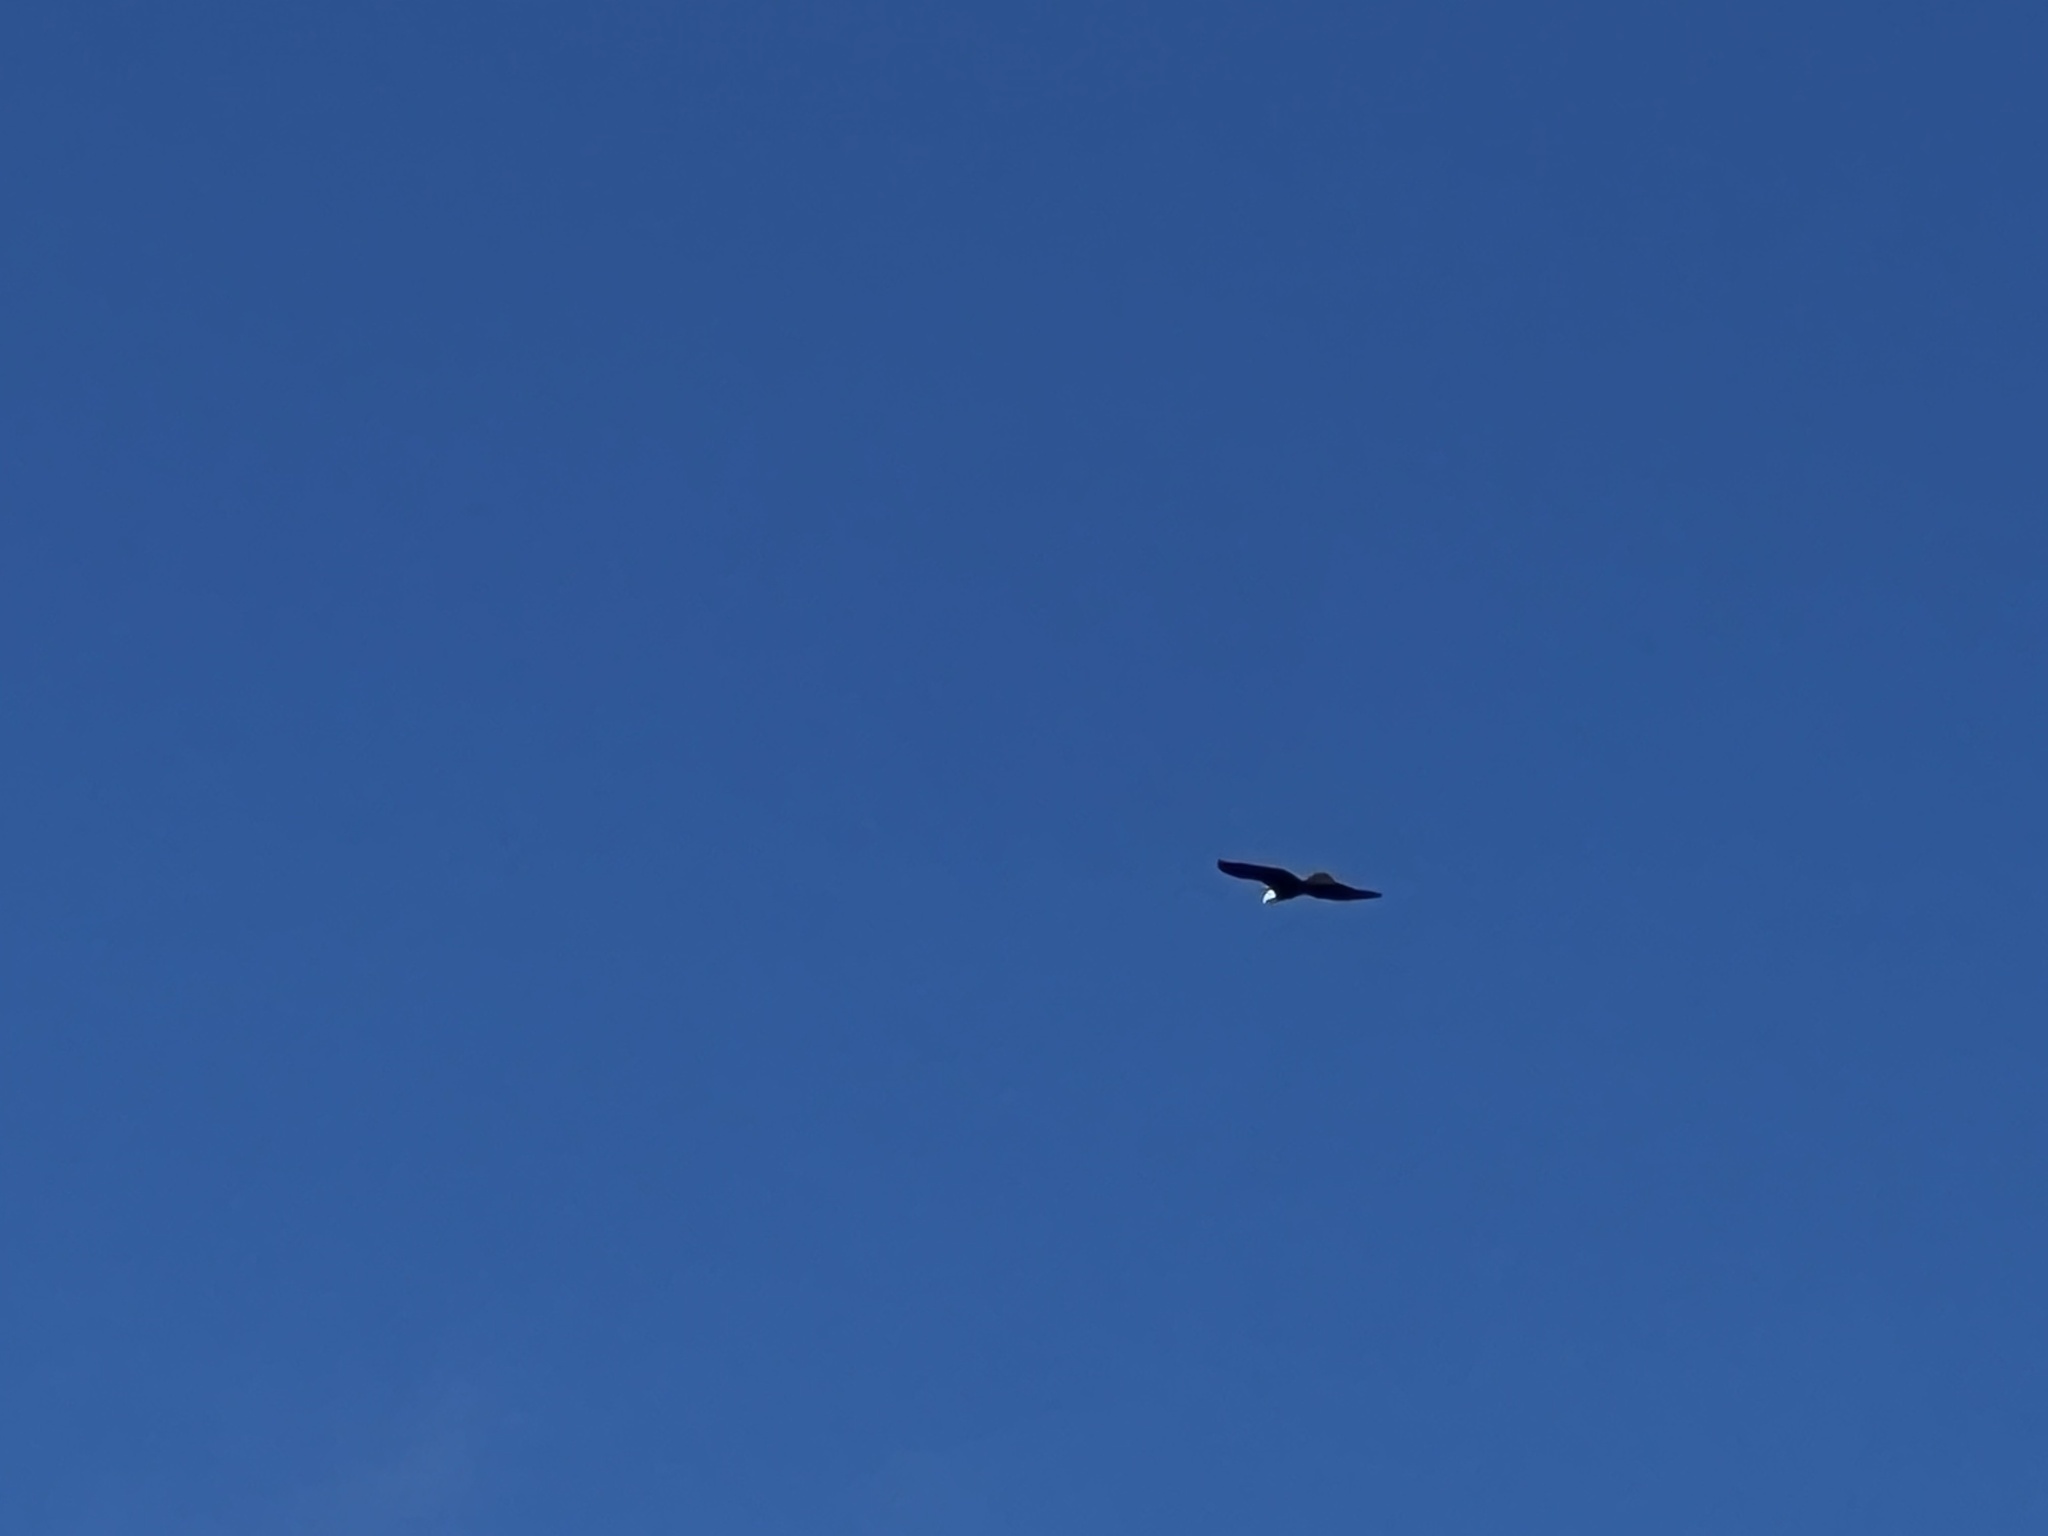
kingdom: Animalia
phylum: Chordata
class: Aves
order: Accipitriformes
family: Accipitridae
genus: Haliaeetus
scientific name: Haliaeetus leucocephalus
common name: Bald eagle
